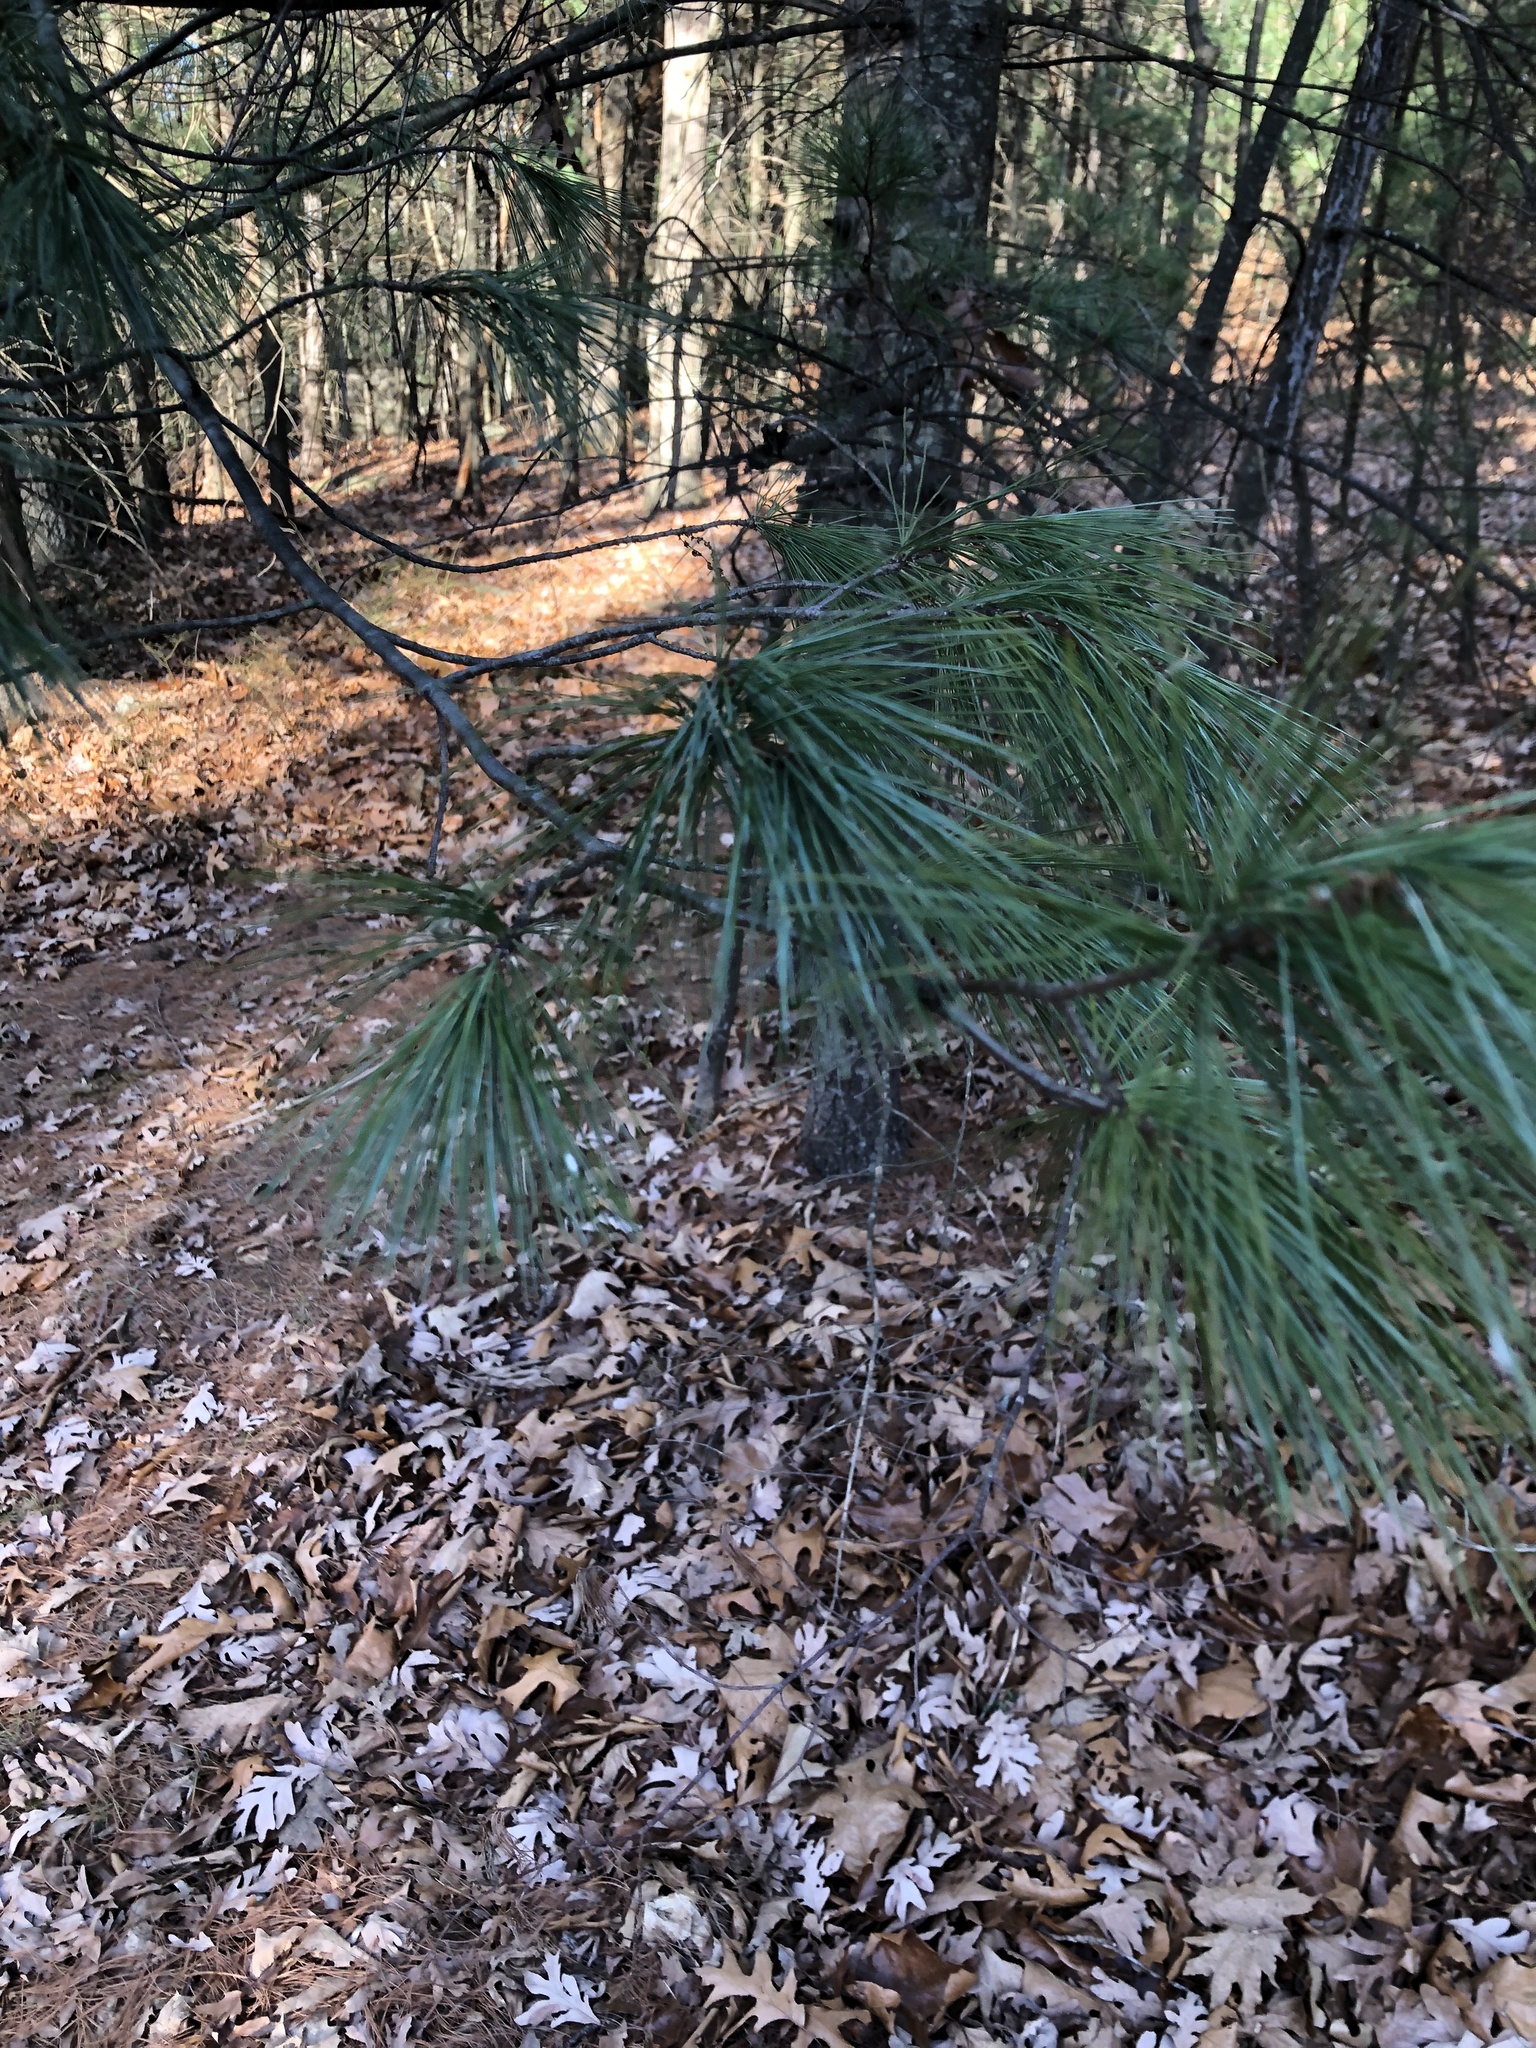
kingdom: Plantae
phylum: Tracheophyta
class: Pinopsida
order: Pinales
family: Pinaceae
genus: Pinus
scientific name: Pinus strobus
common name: Weymouth pine
